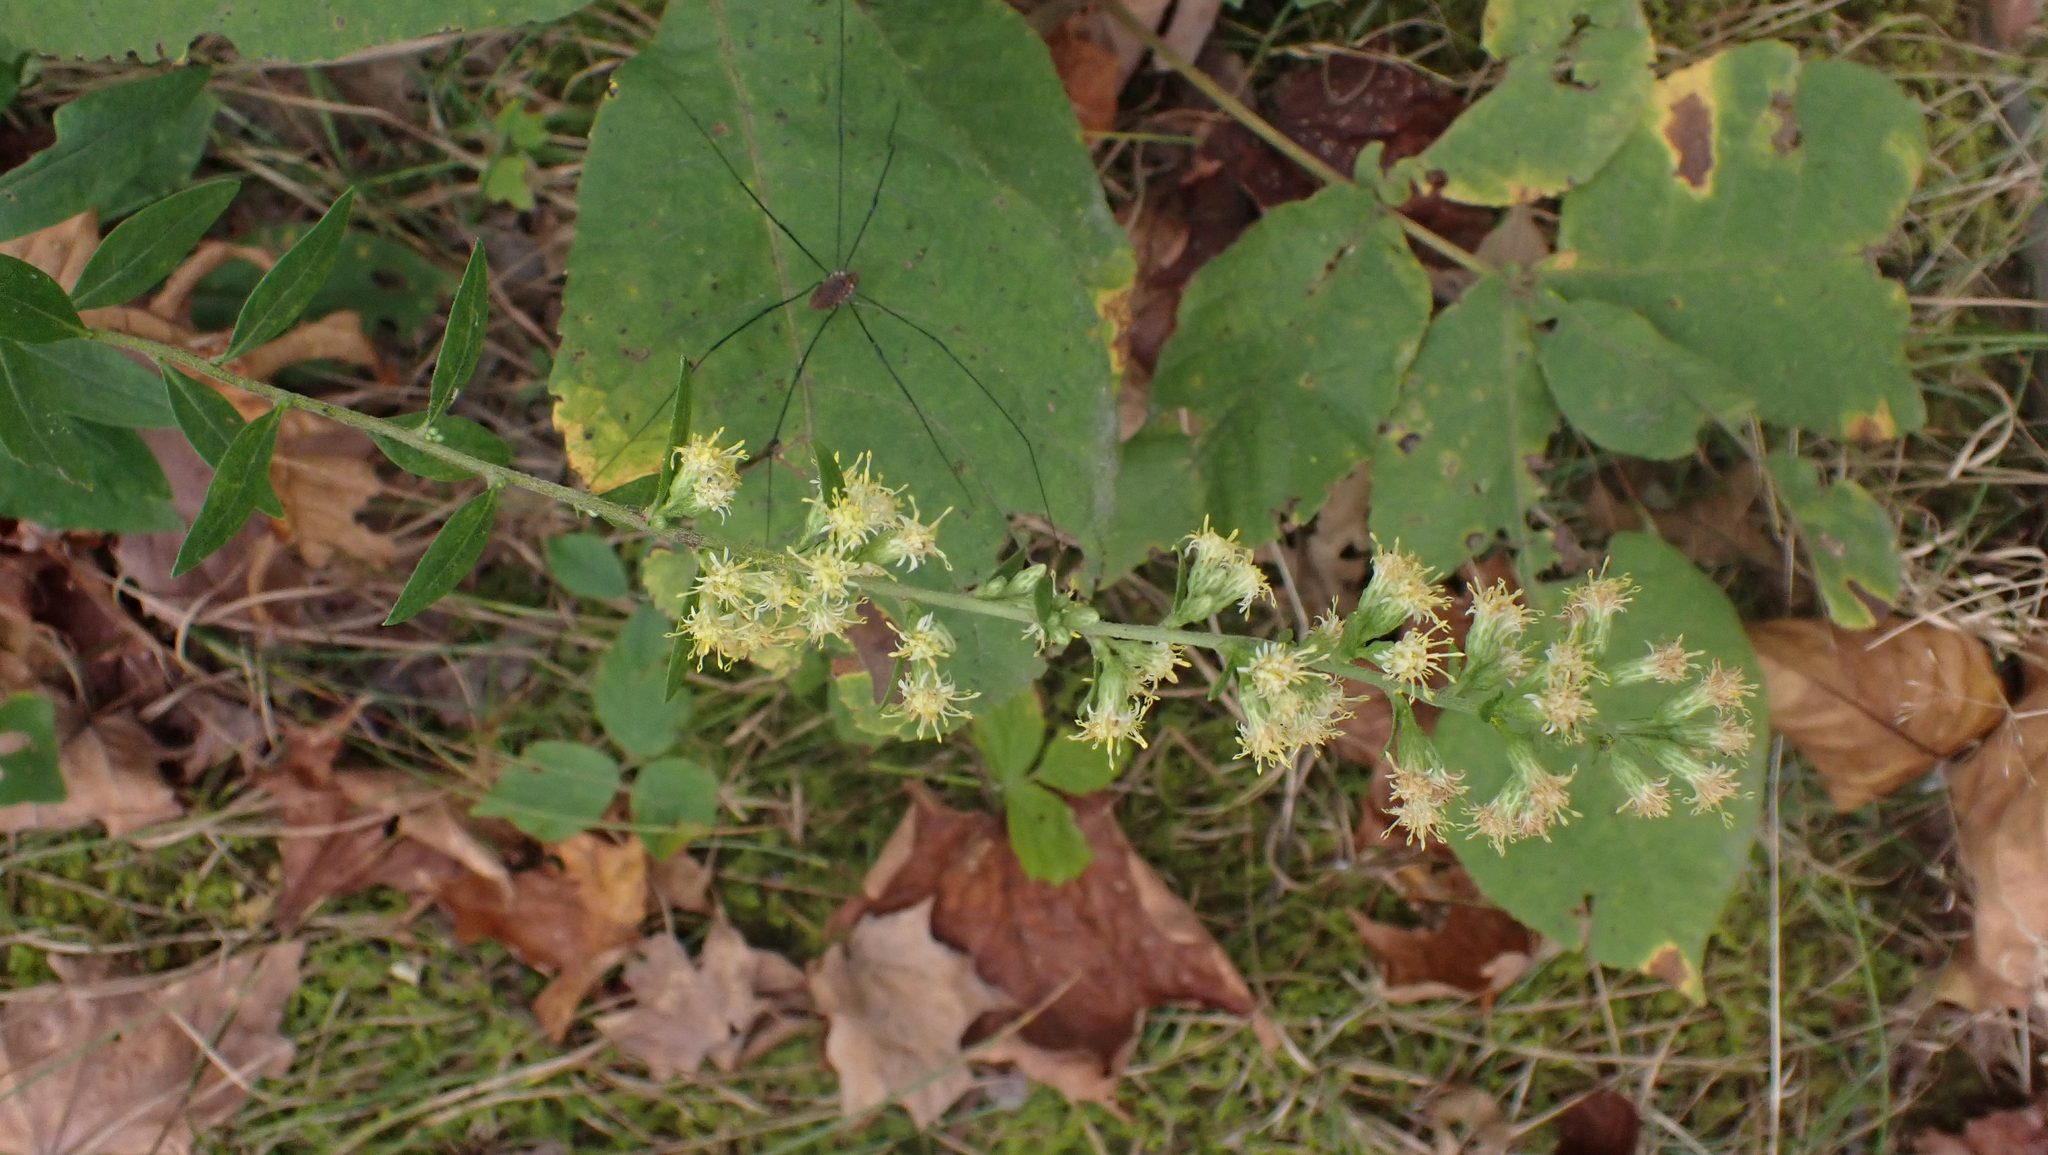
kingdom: Plantae
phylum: Tracheophyta
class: Magnoliopsida
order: Asterales
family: Asteraceae
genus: Solidago
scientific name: Solidago bicolor
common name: Silverrod
